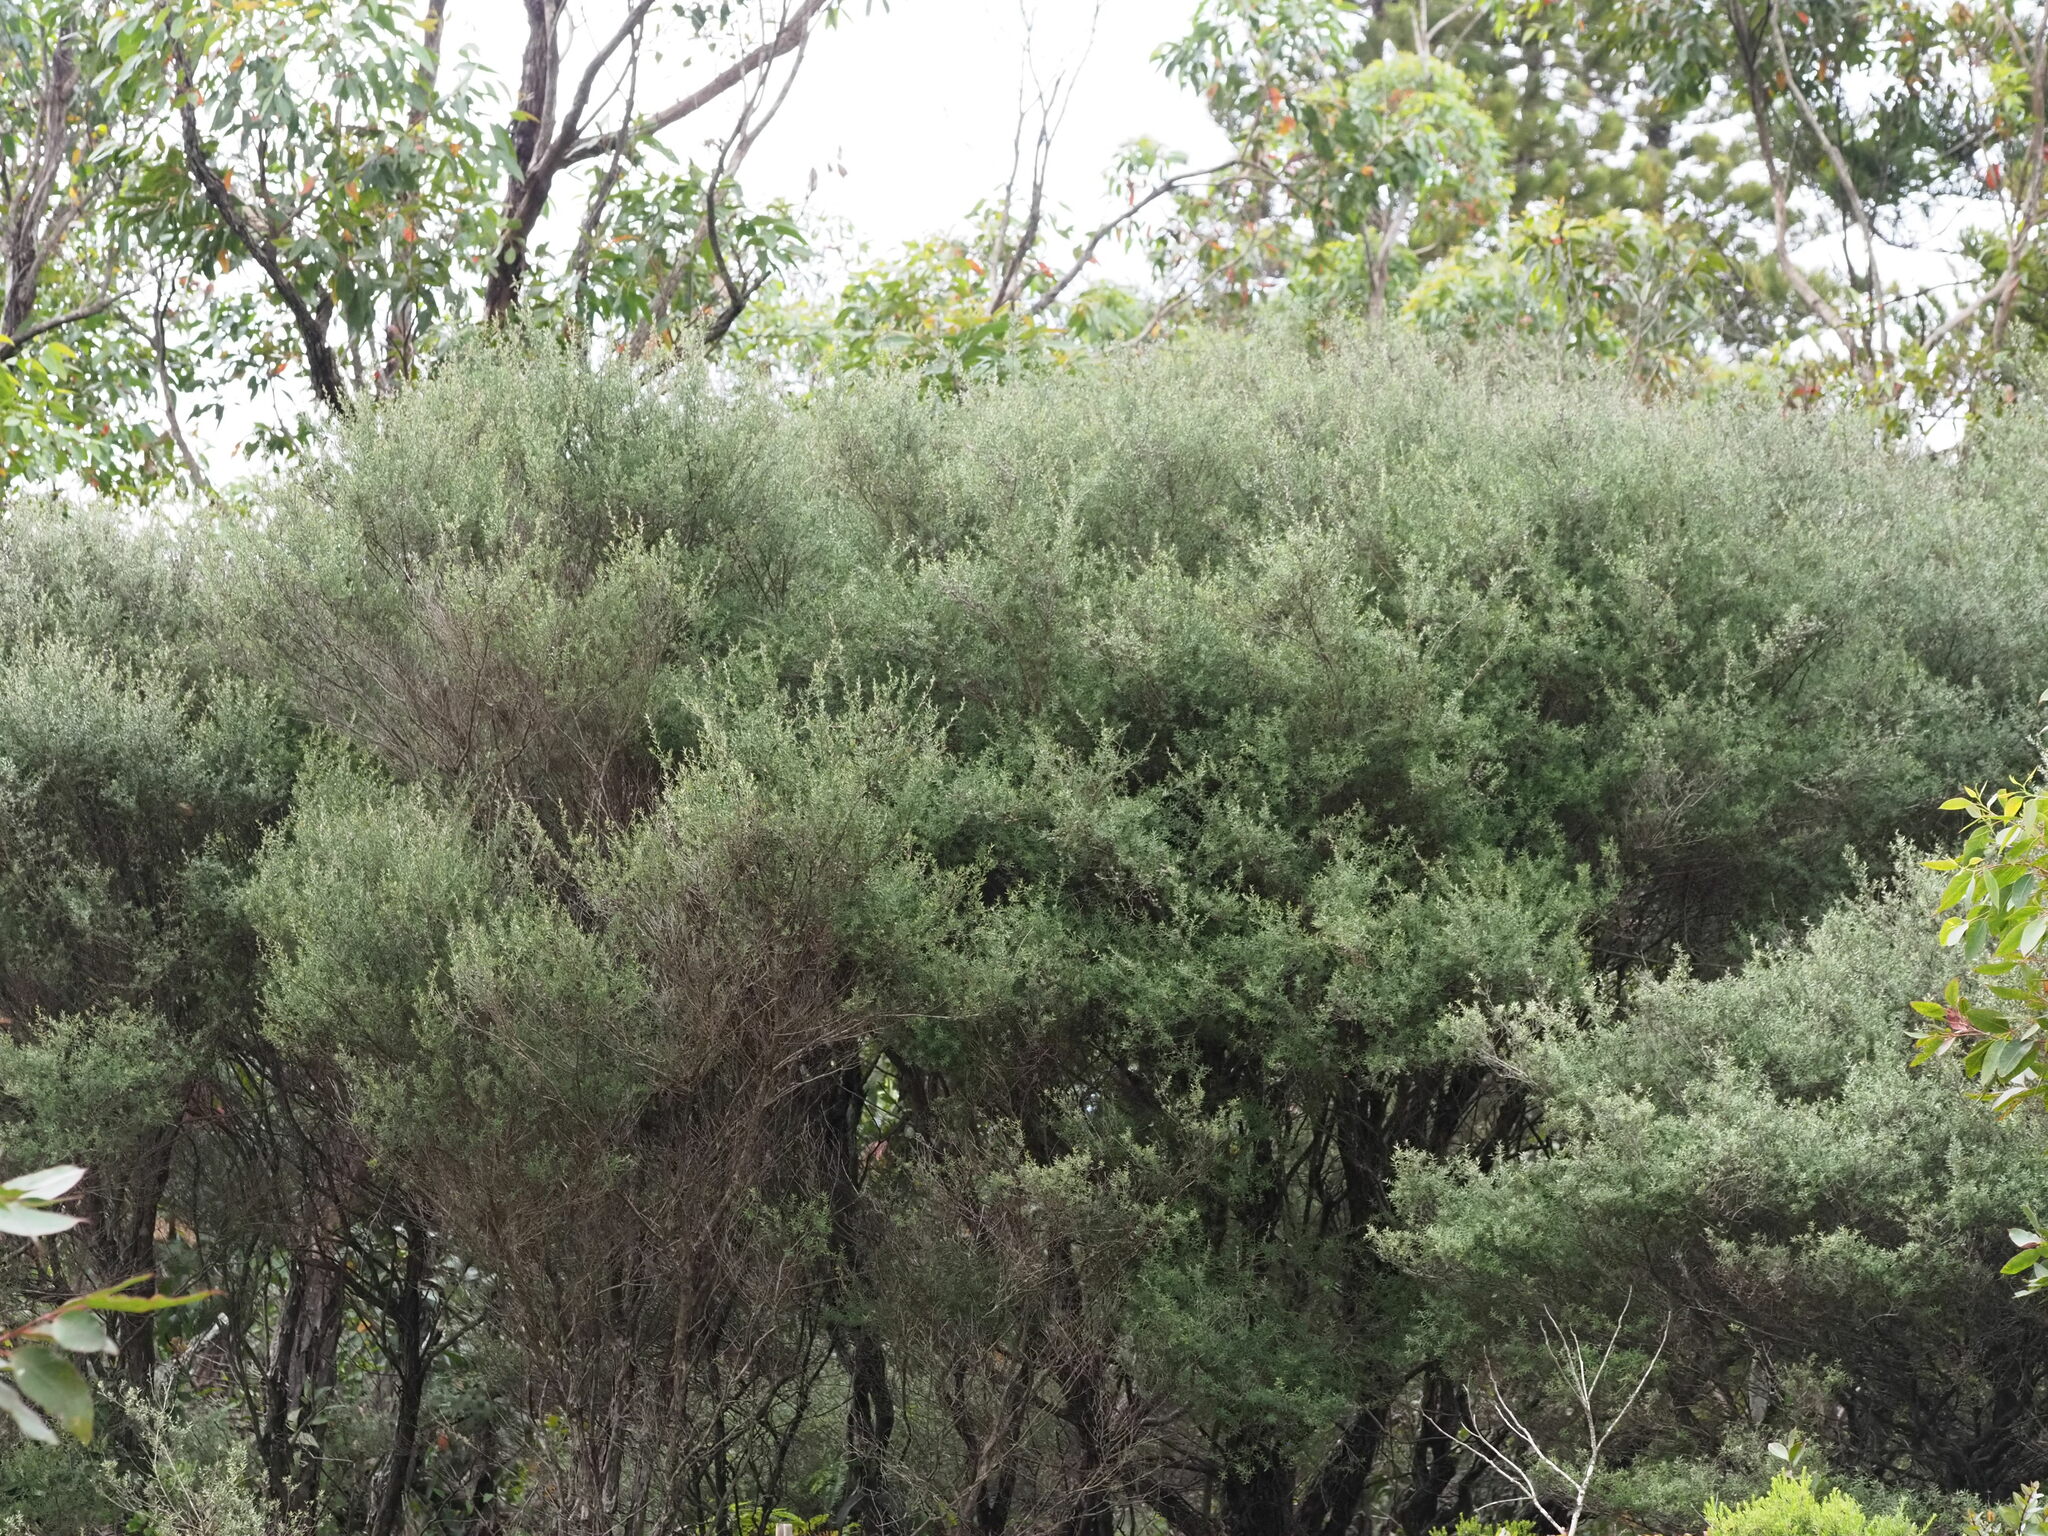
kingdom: Plantae
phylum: Tracheophyta
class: Magnoliopsida
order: Myrtales
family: Myrtaceae
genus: Leptospermum
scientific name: Leptospermum scoparium
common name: Broom tea-tree
